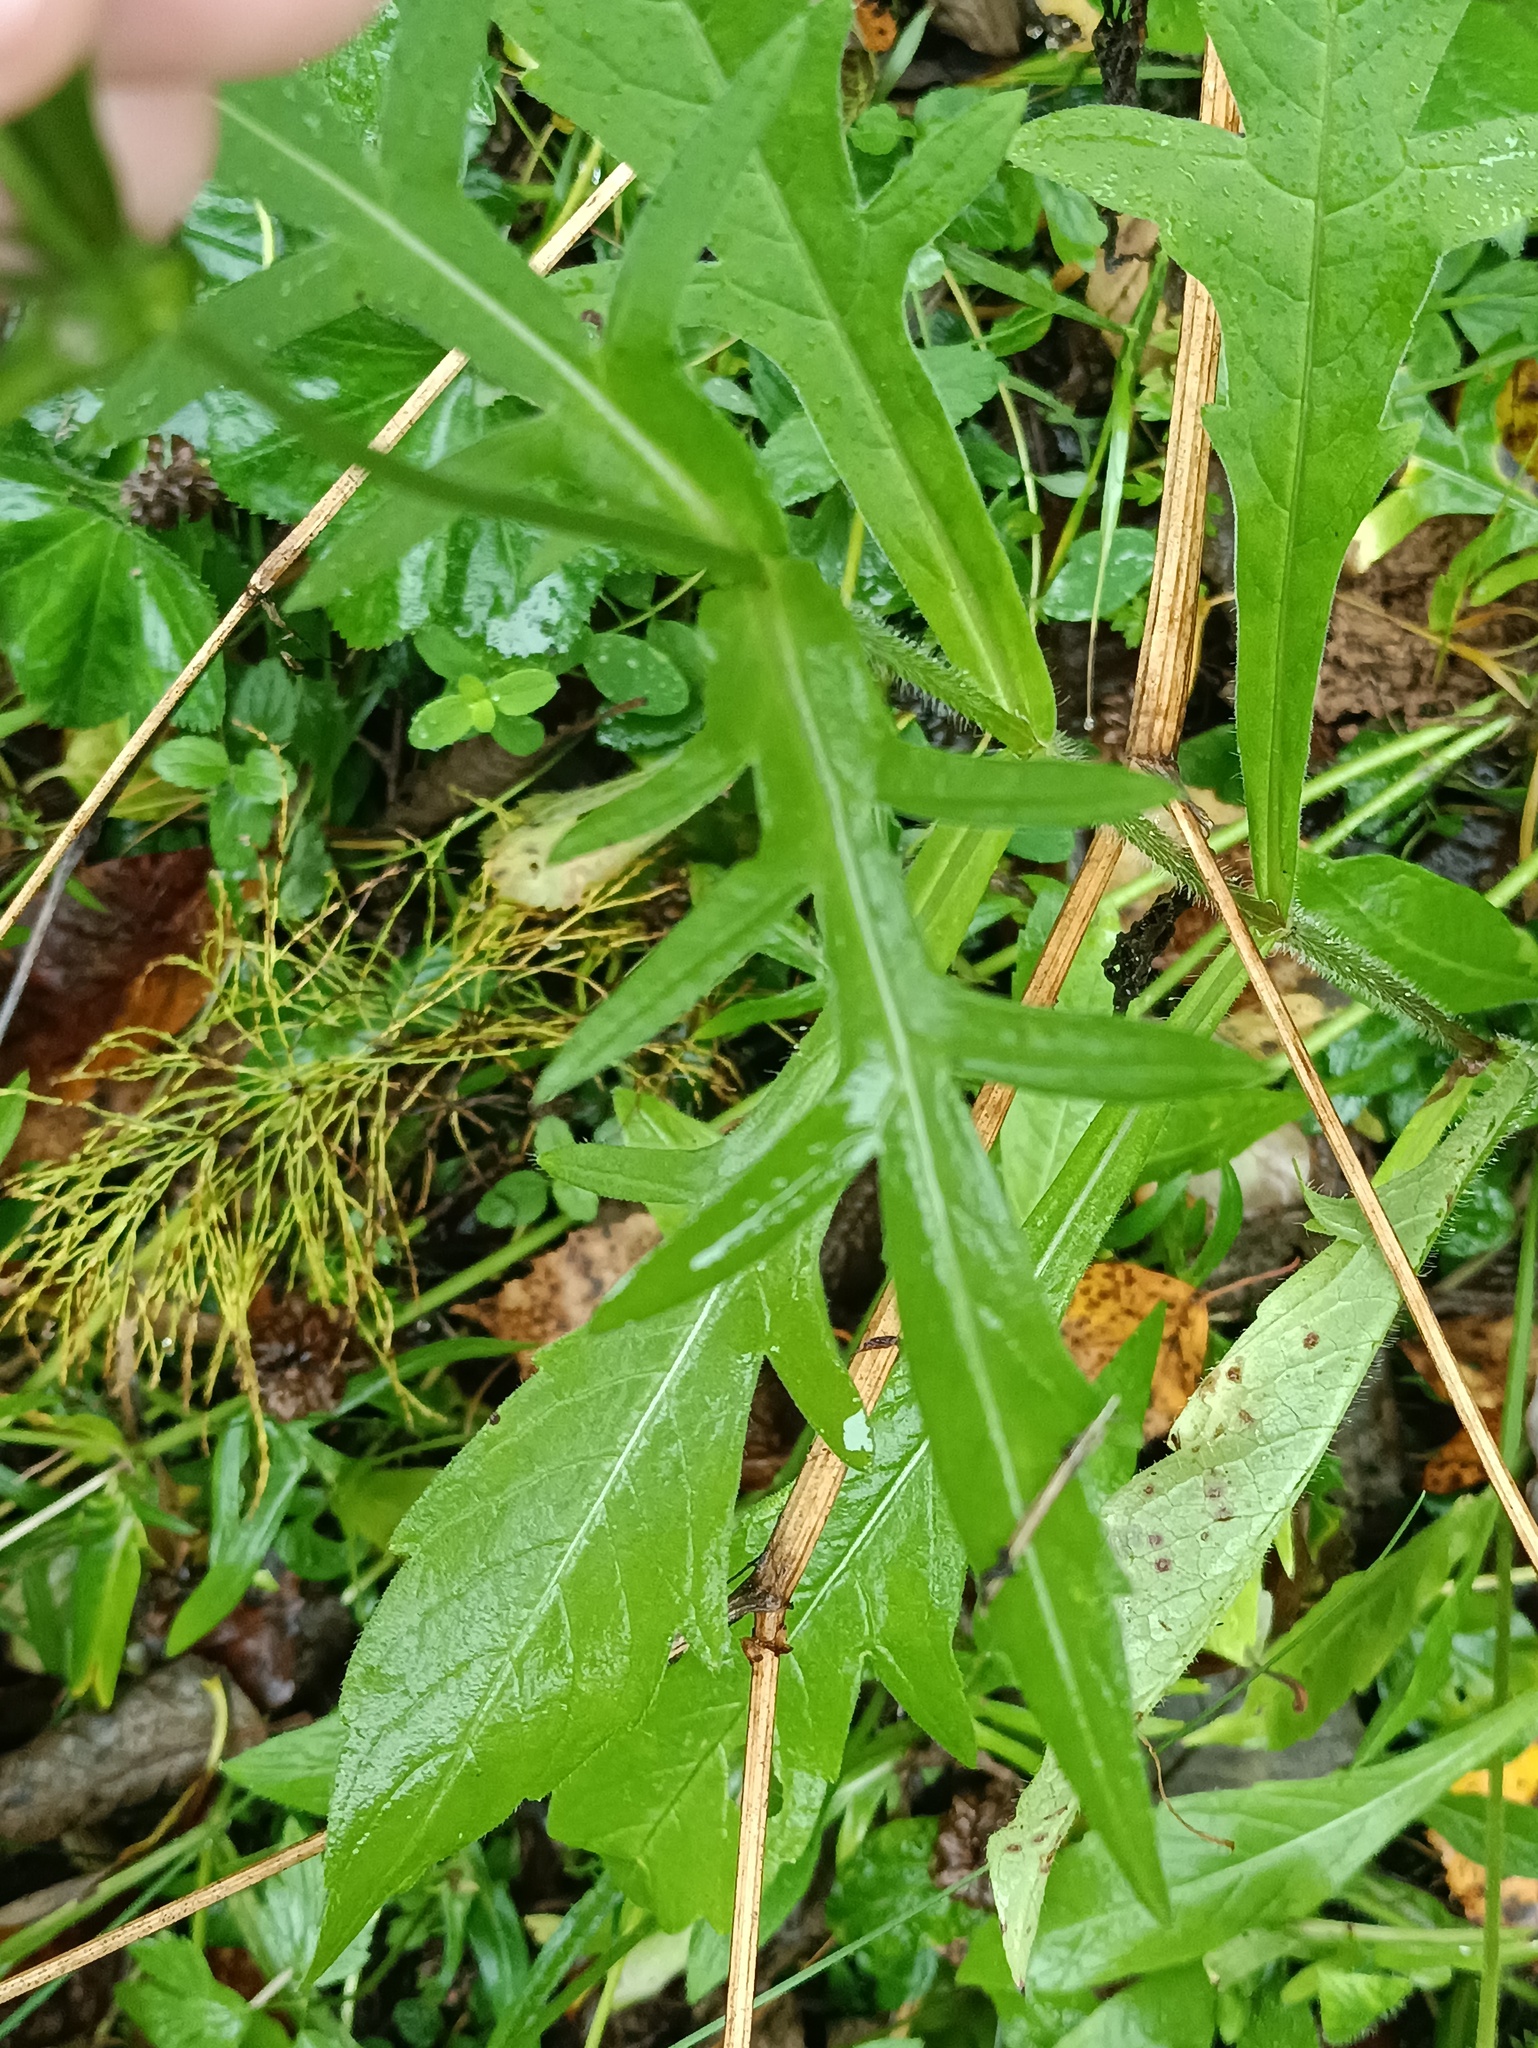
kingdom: Plantae
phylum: Tracheophyta
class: Magnoliopsida
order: Dipsacales
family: Caprifoliaceae
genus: Knautia
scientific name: Knautia arvensis
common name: Field scabiosa
